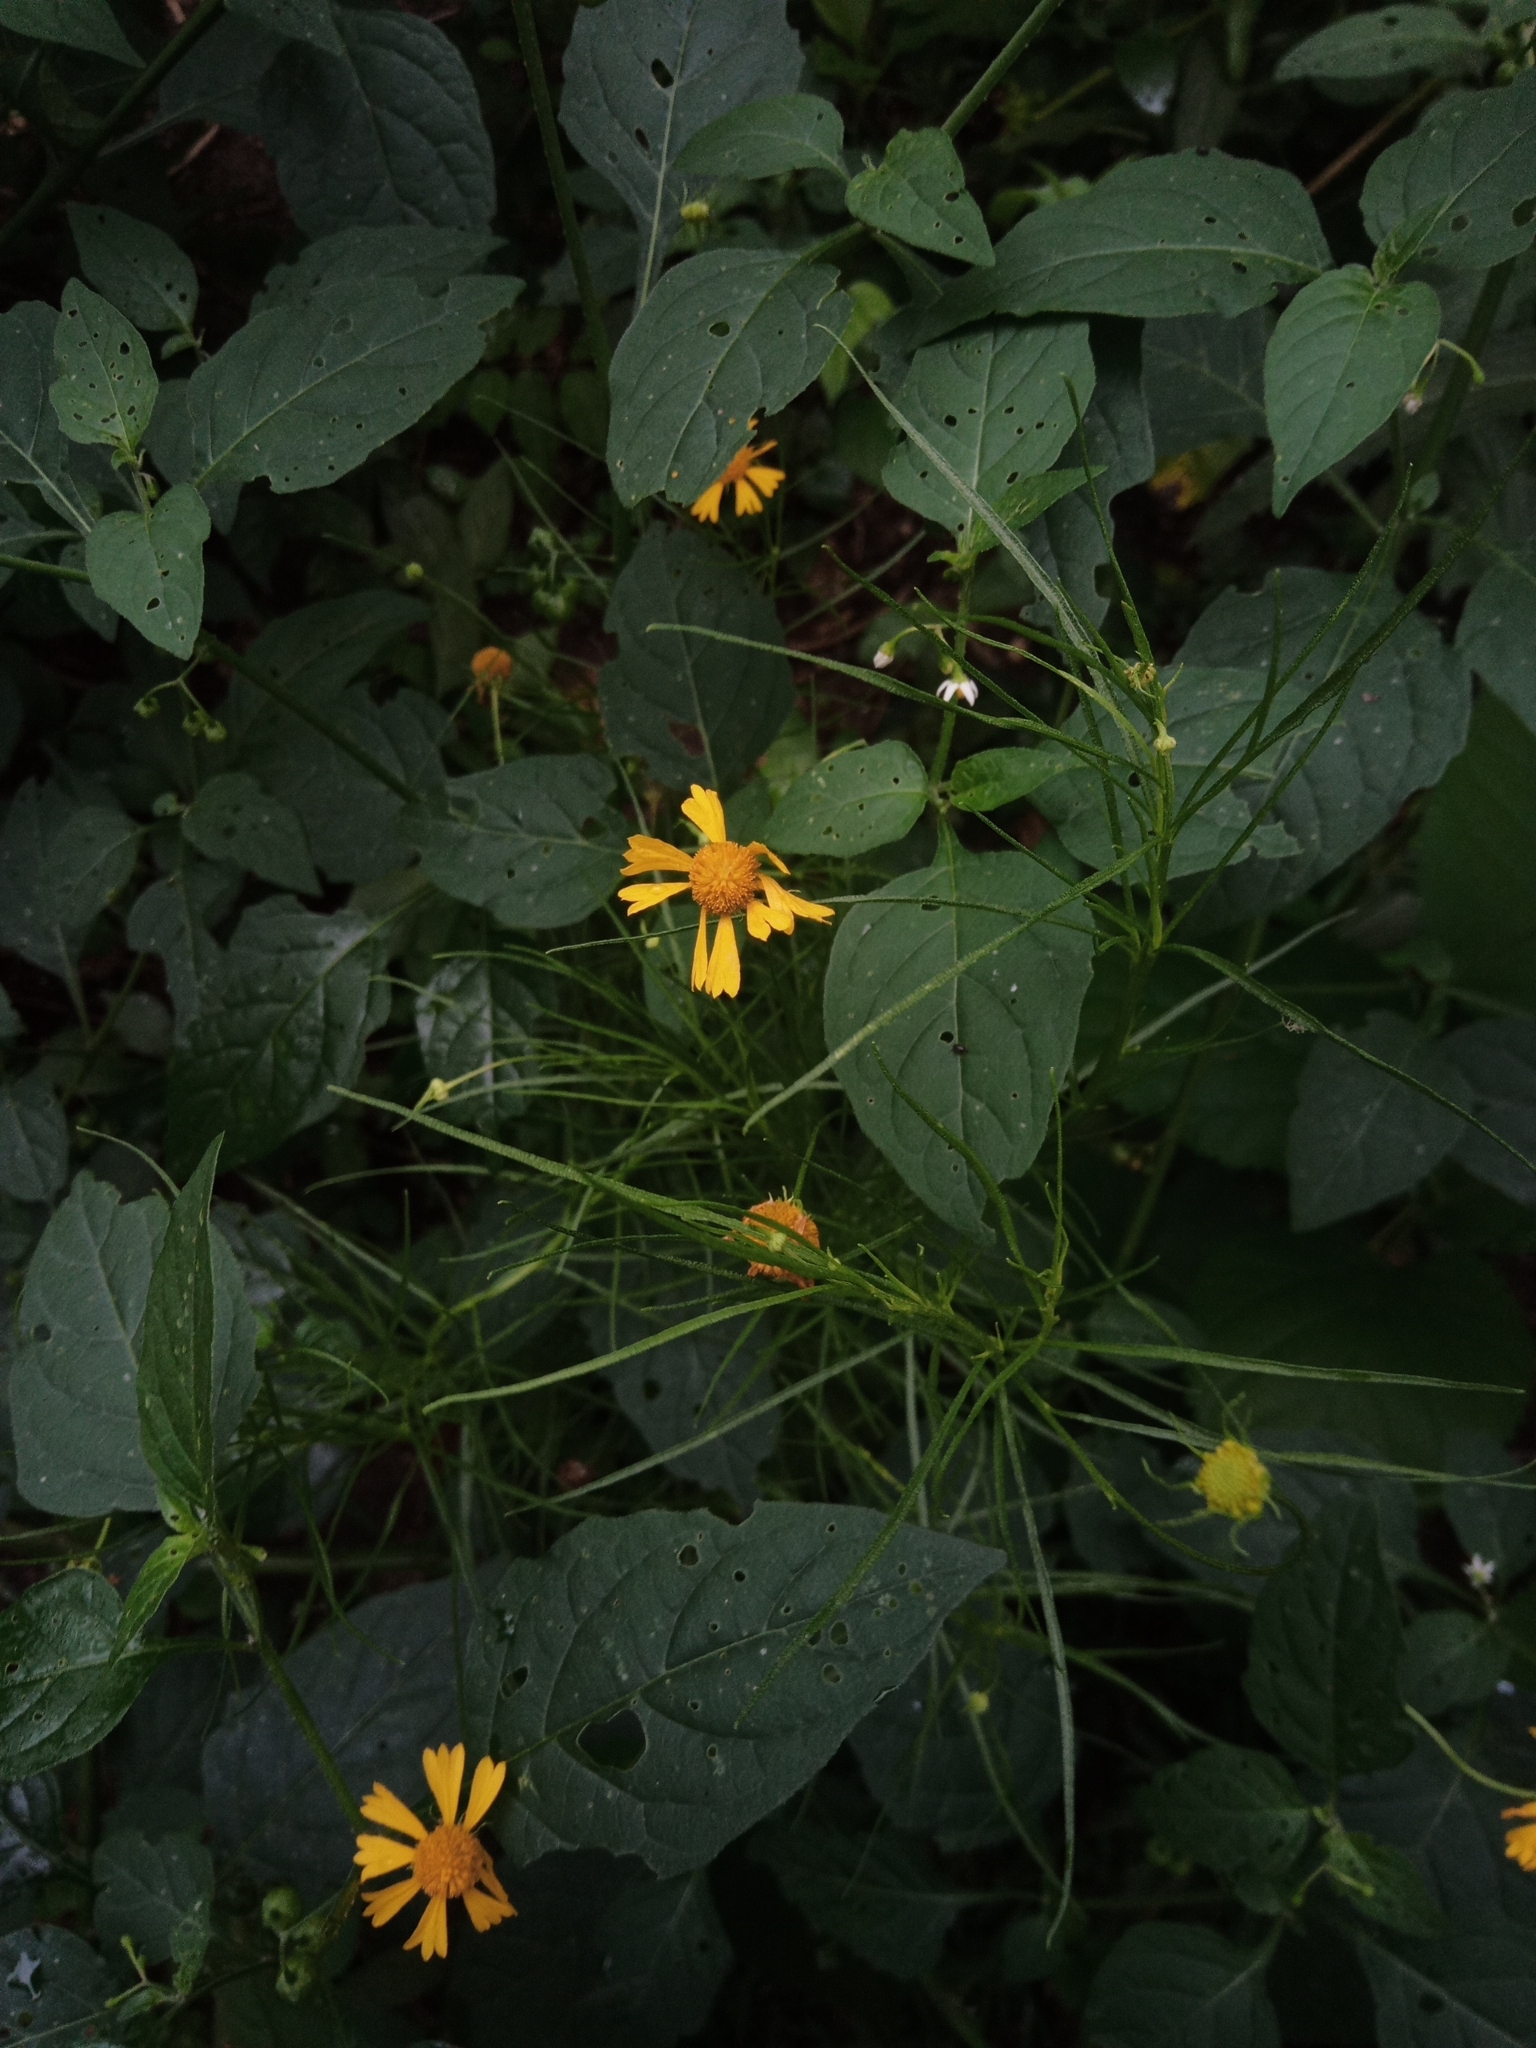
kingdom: Plantae
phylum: Tracheophyta
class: Magnoliopsida
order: Asterales
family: Asteraceae
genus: Helenium
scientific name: Helenium amarum
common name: Bitter sneezeweed
